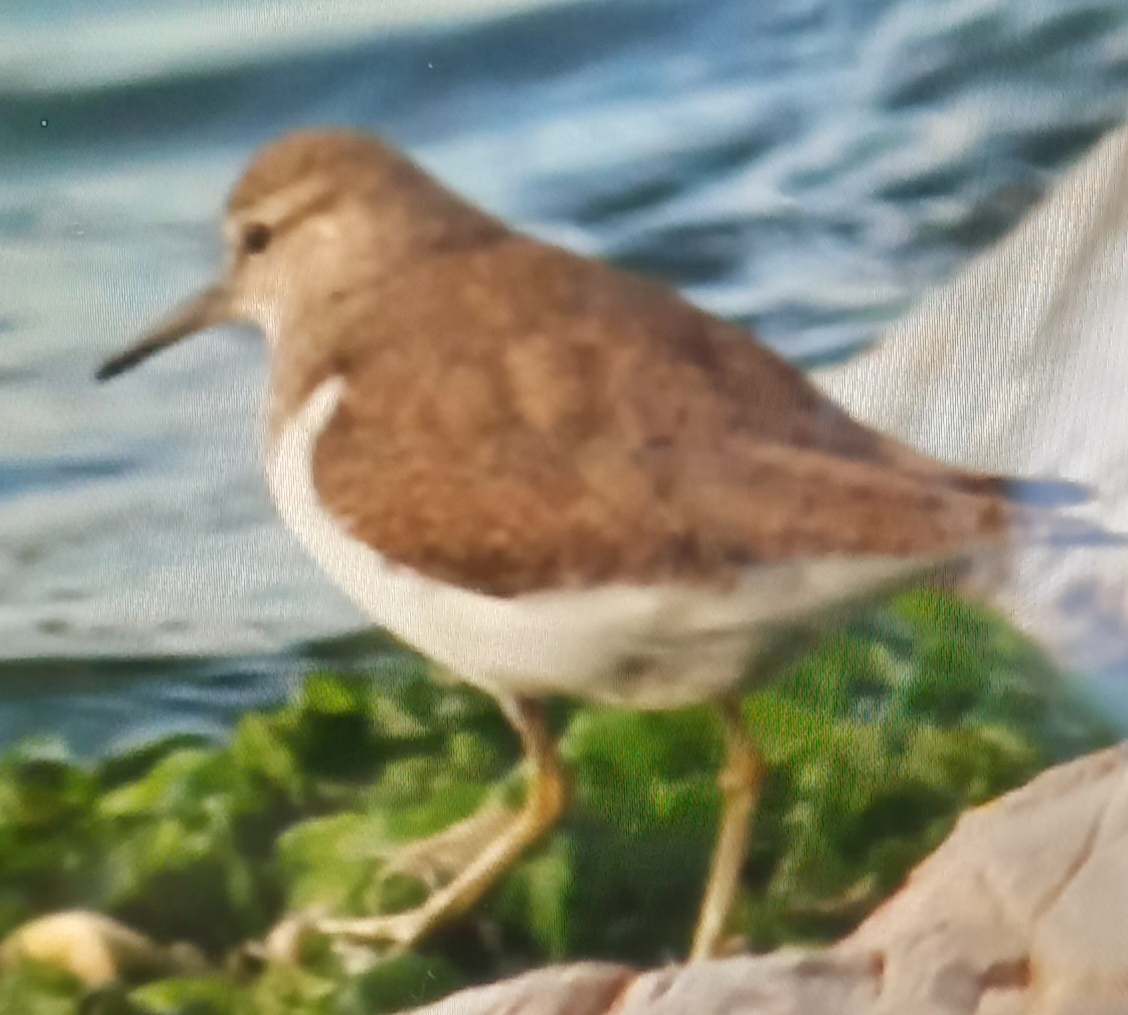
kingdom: Animalia
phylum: Chordata
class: Aves
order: Charadriiformes
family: Scolopacidae
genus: Actitis
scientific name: Actitis hypoleucos
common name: Common sandpiper
